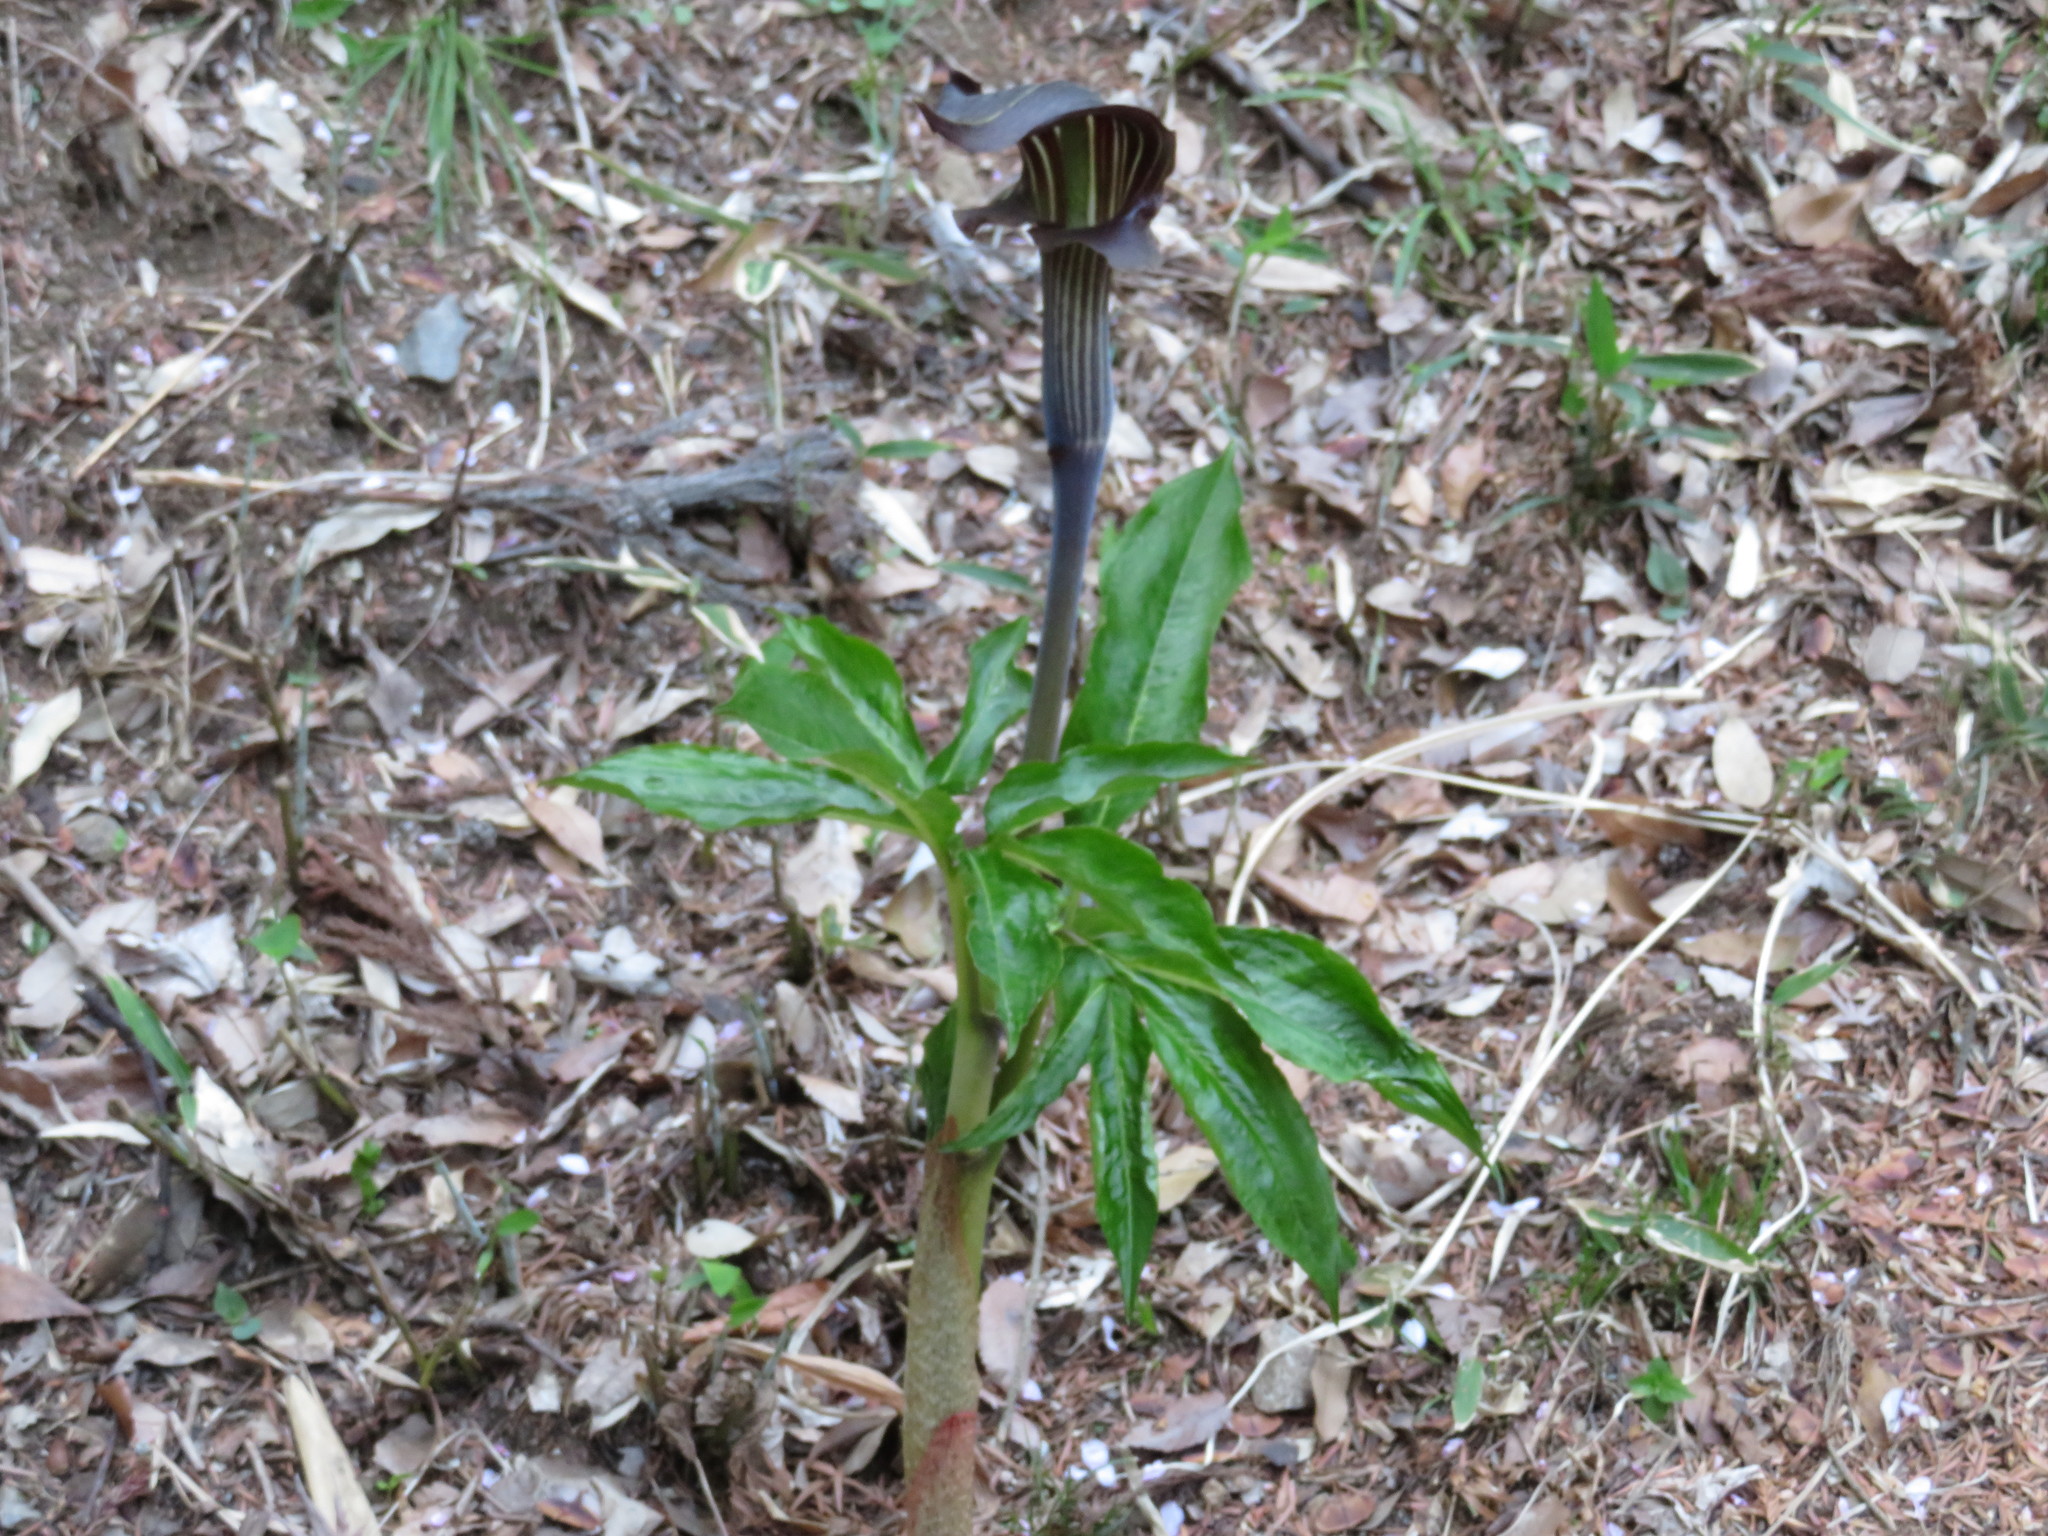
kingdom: Plantae
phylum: Tracheophyta
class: Liliopsida
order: Alismatales
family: Araceae
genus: Arisaema
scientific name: Arisaema limbatum
